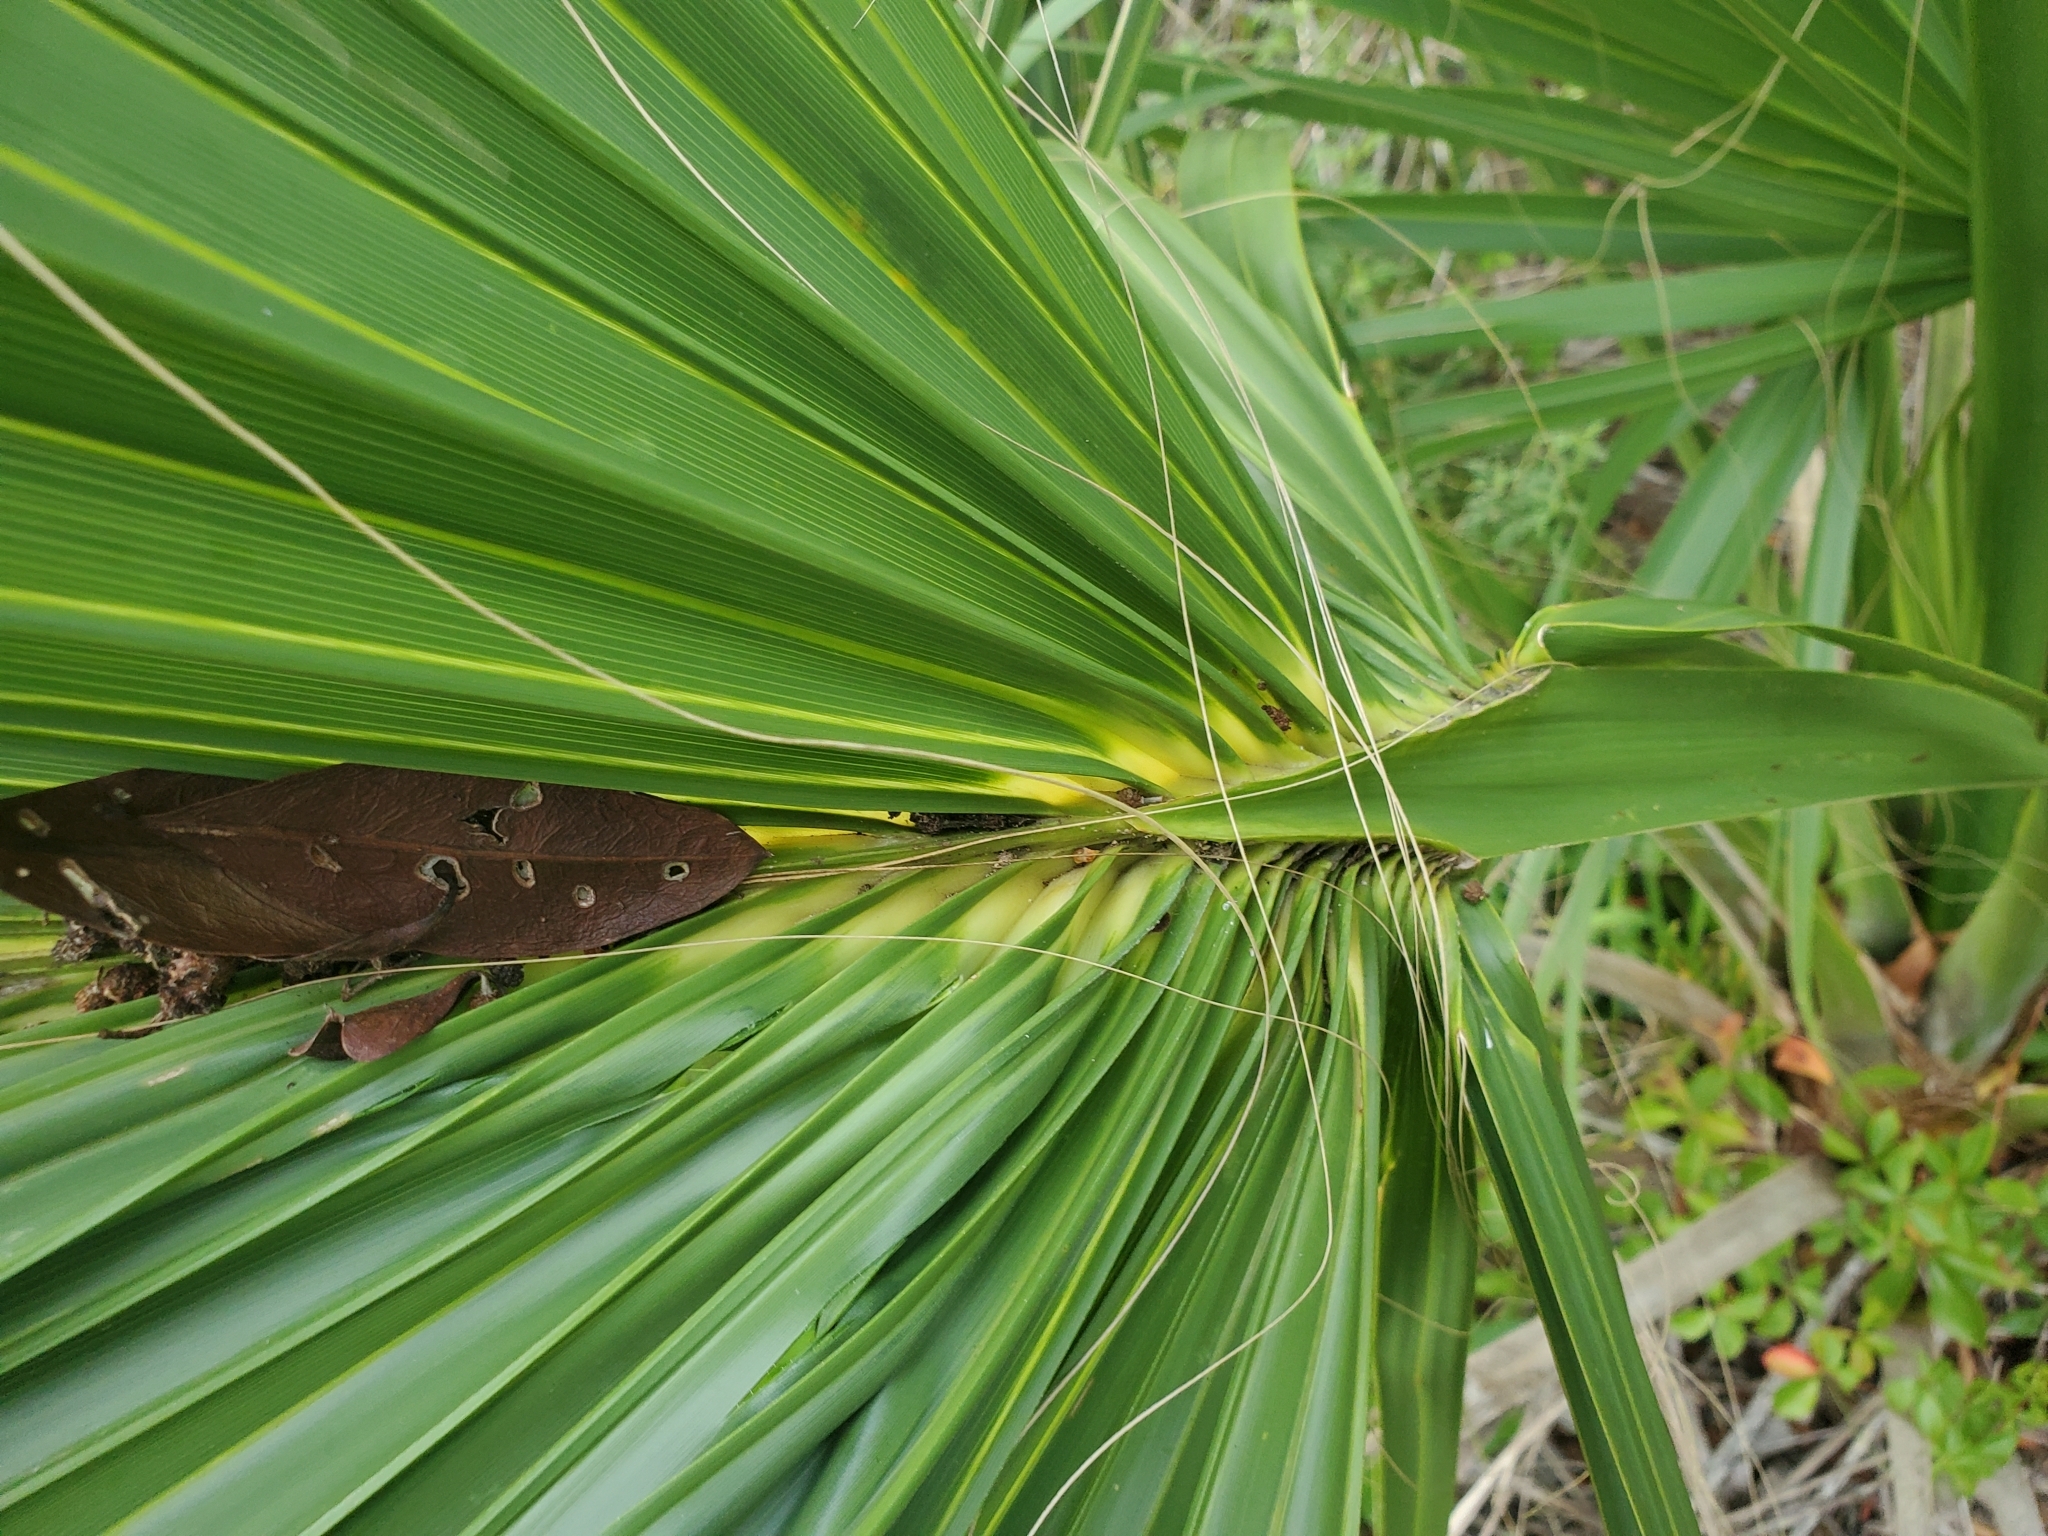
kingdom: Plantae
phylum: Tracheophyta
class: Liliopsida
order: Arecales
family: Arecaceae
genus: Sabal
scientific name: Sabal palmetto
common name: Blue palmetto
